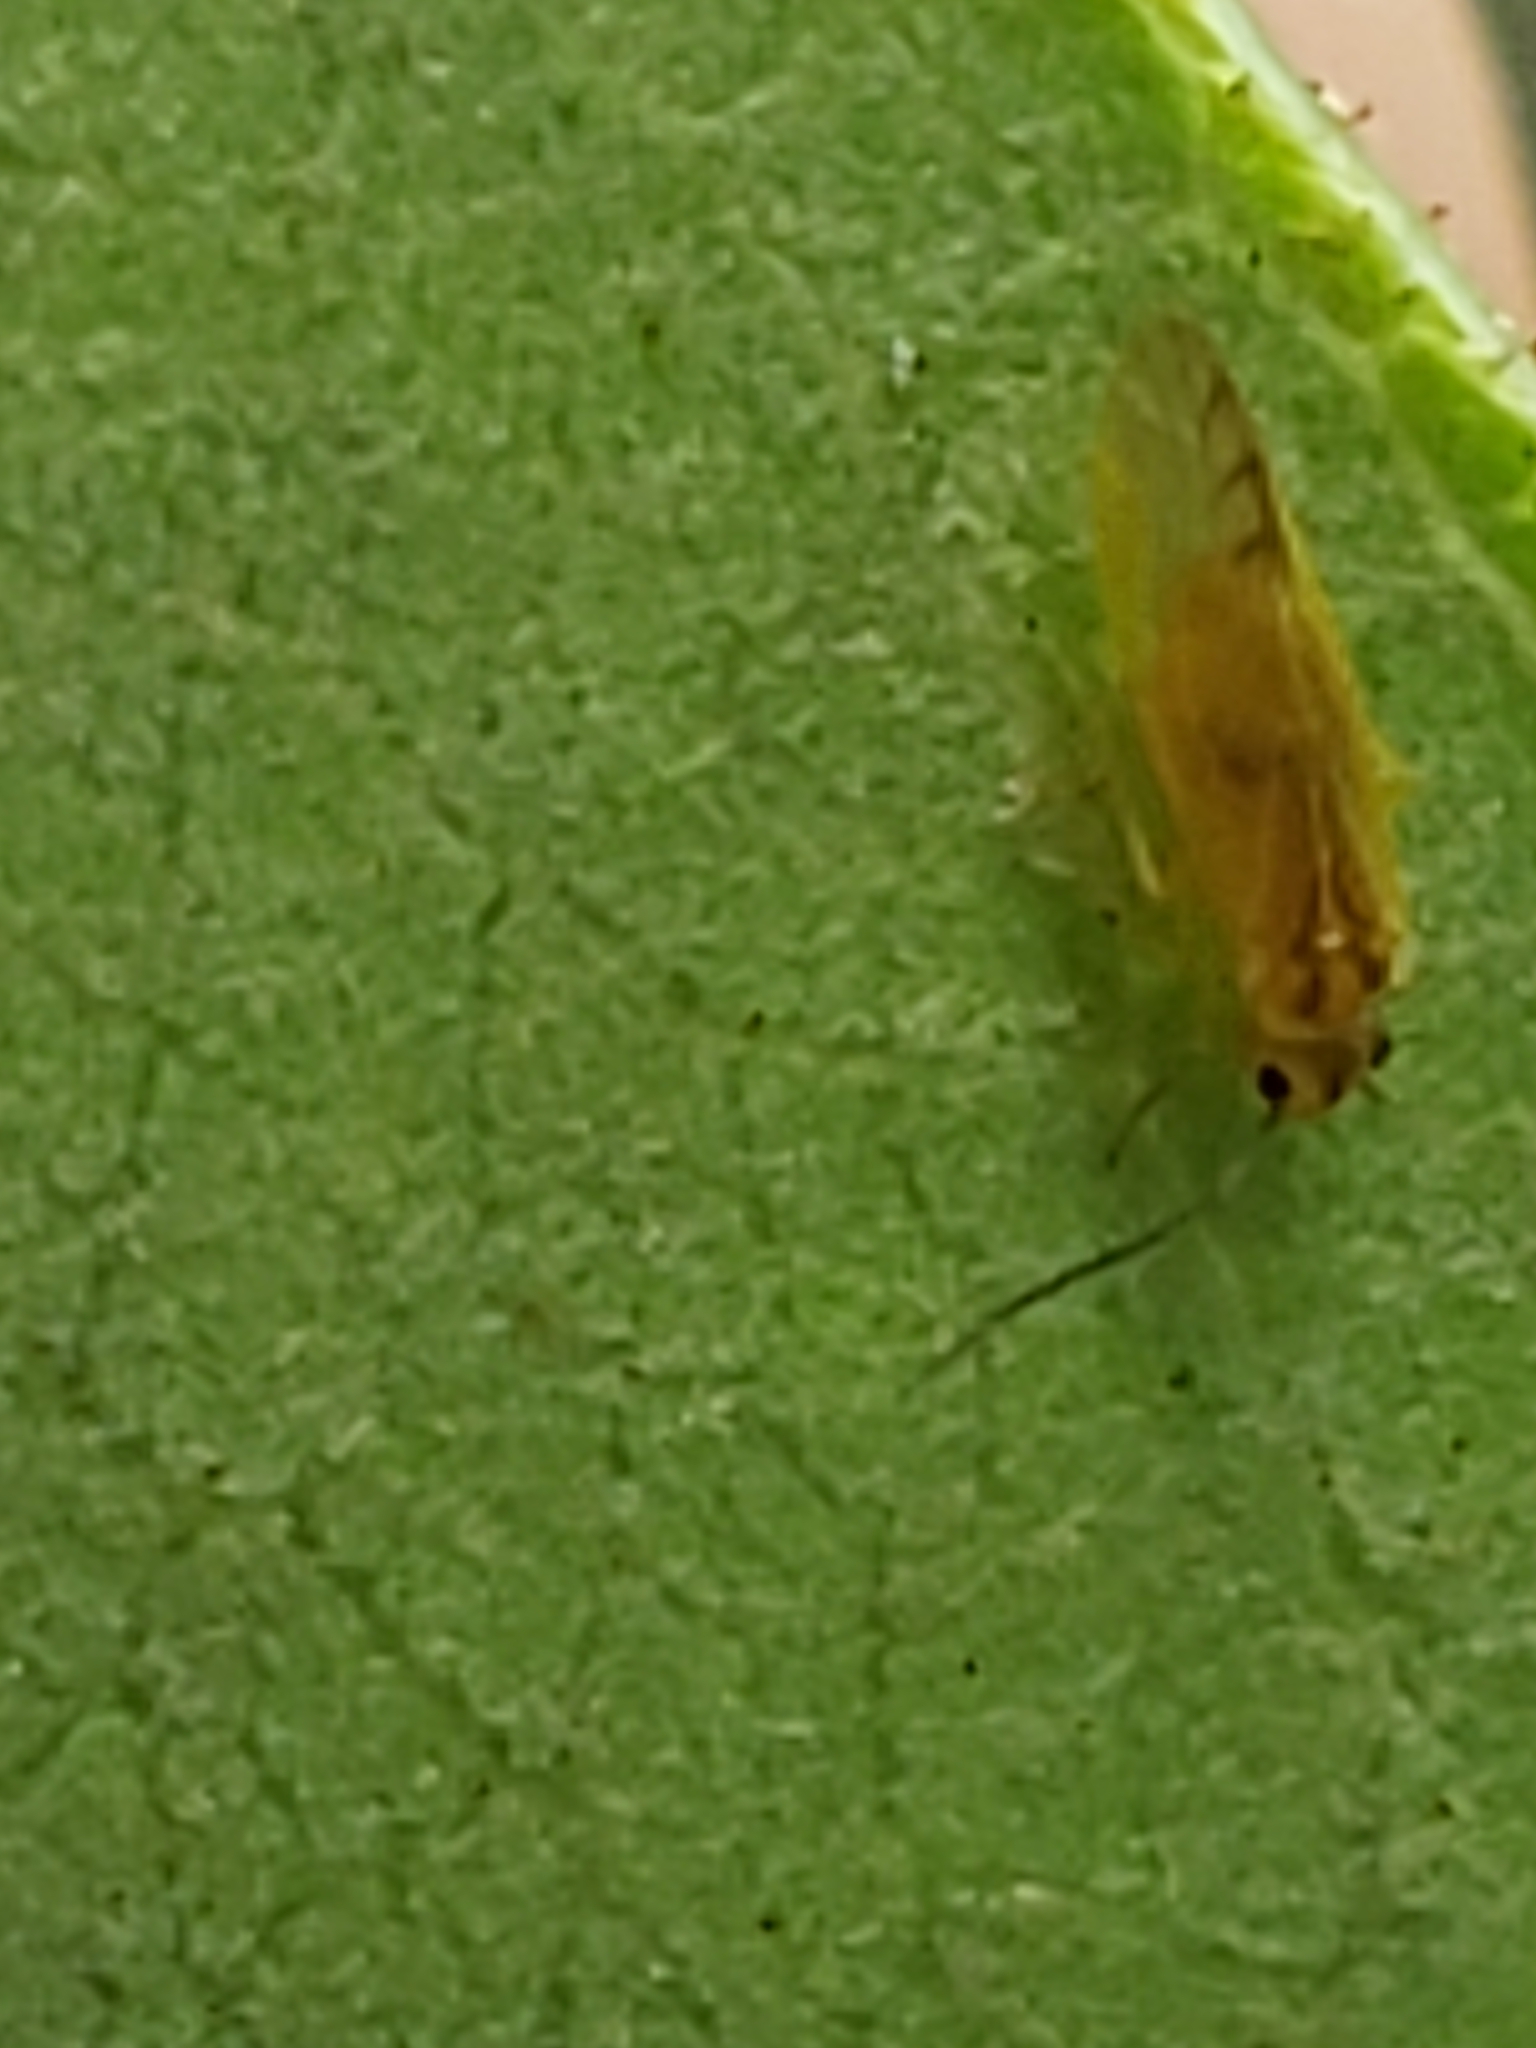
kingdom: Animalia
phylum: Arthropoda
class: Insecta
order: Psocodea
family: Caeciliusidae
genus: Valenzuela
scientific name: Valenzuela flavidus
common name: Yellow barklouse
